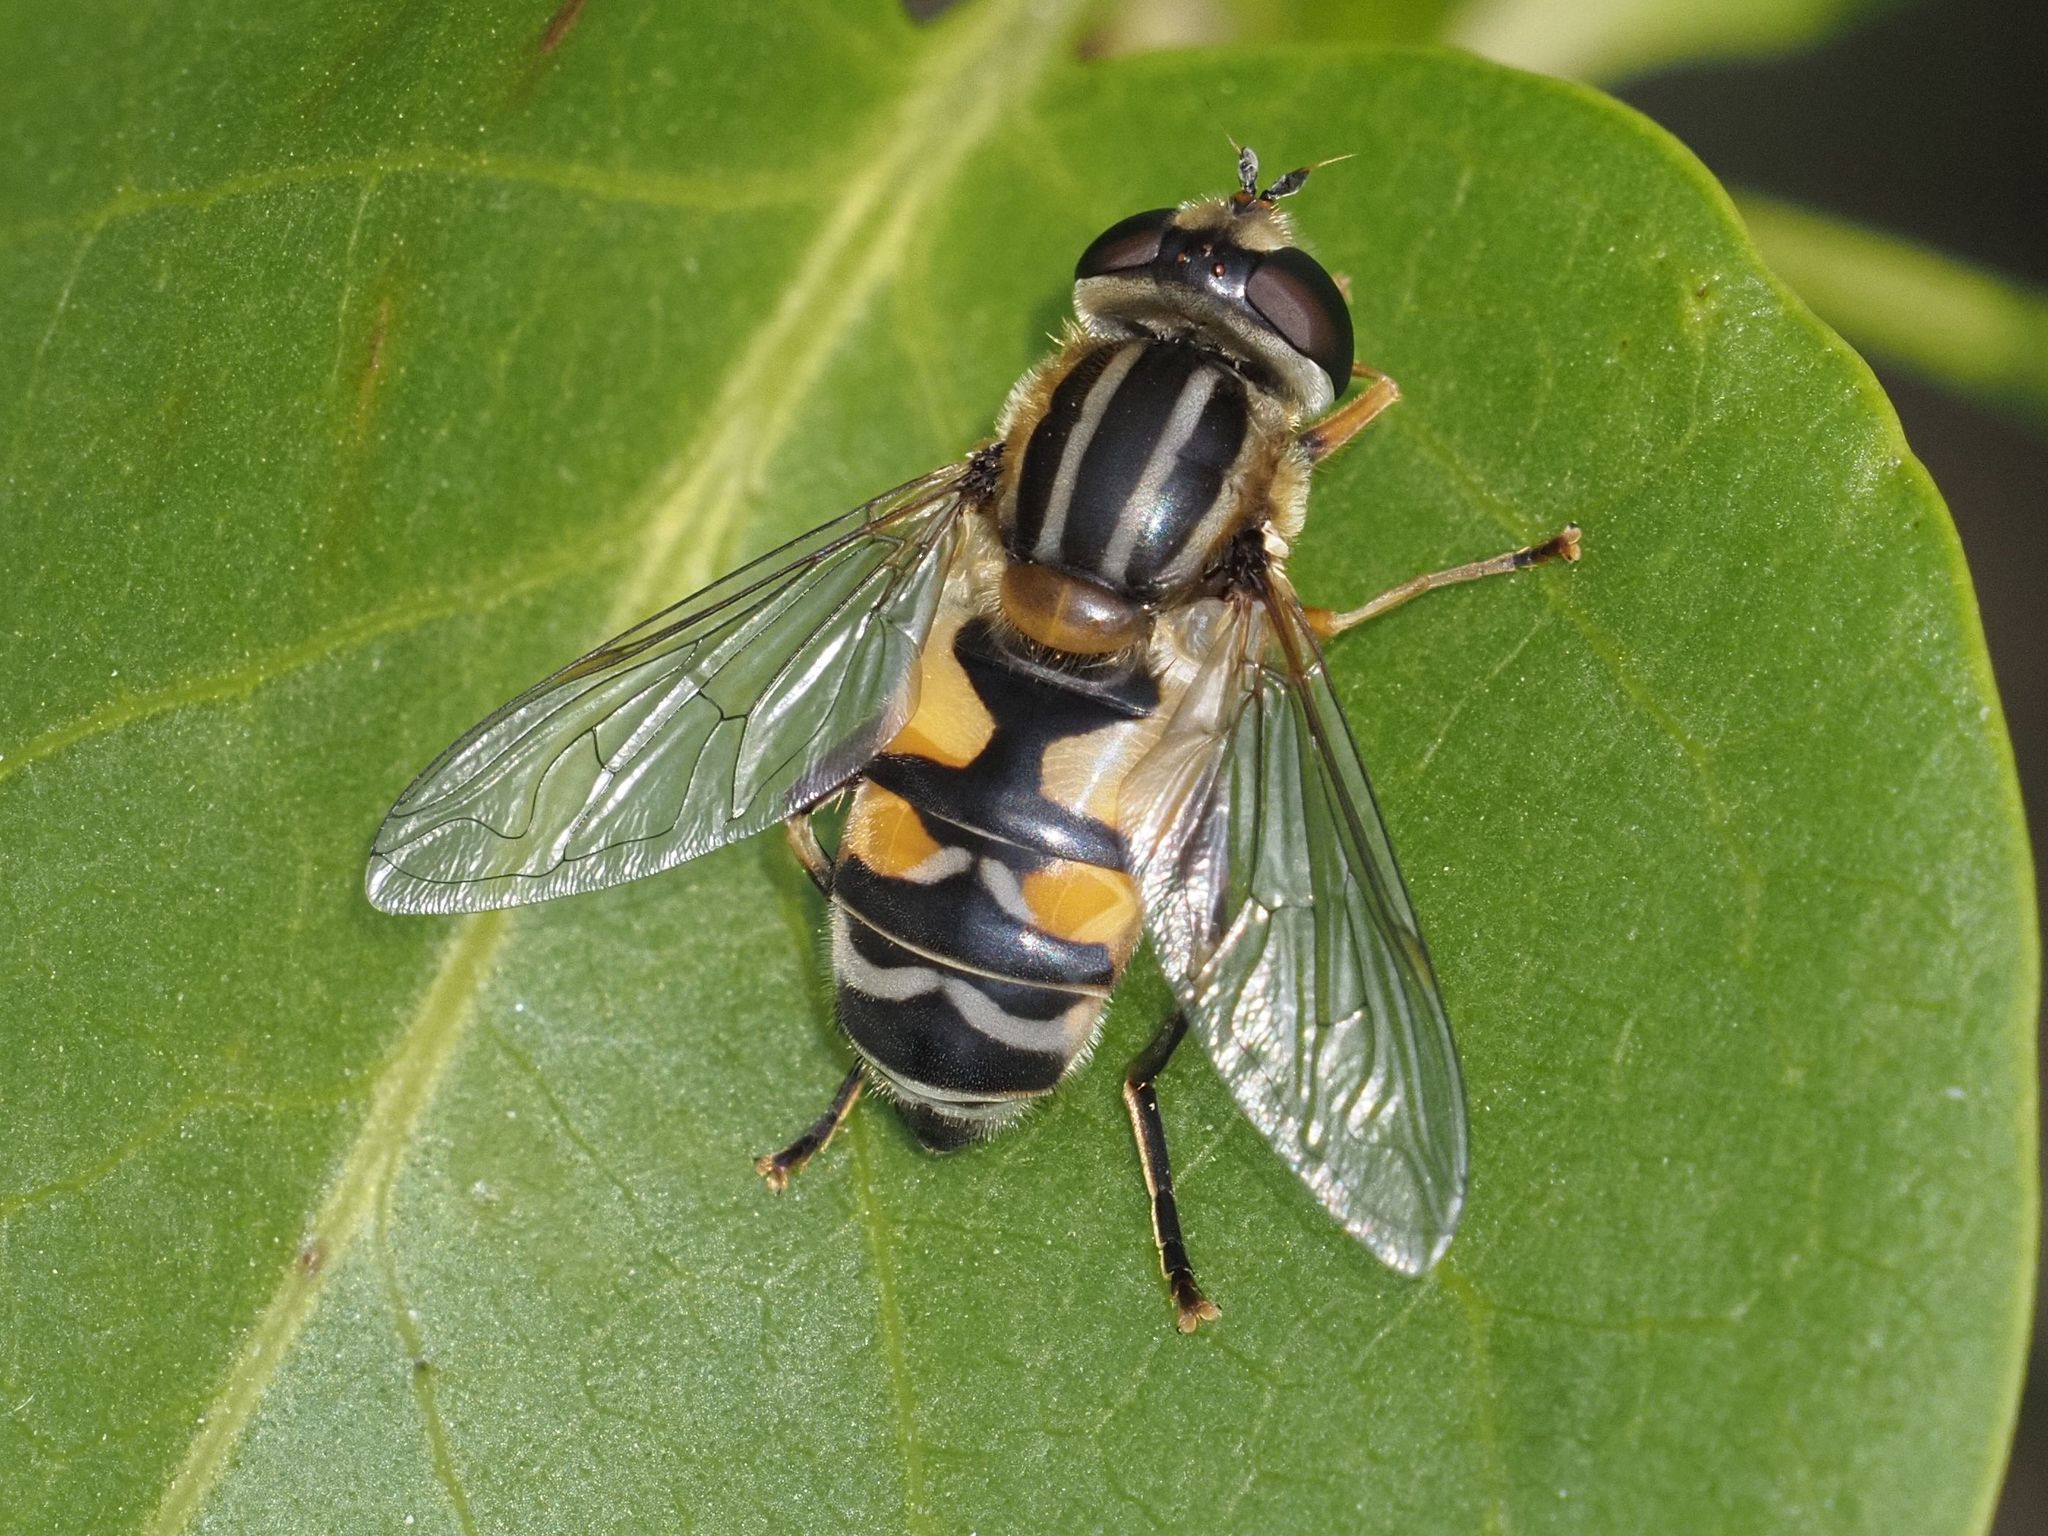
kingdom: Animalia
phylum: Arthropoda
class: Insecta
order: Diptera
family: Syrphidae
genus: Helophilus
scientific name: Helophilus trivittatus
